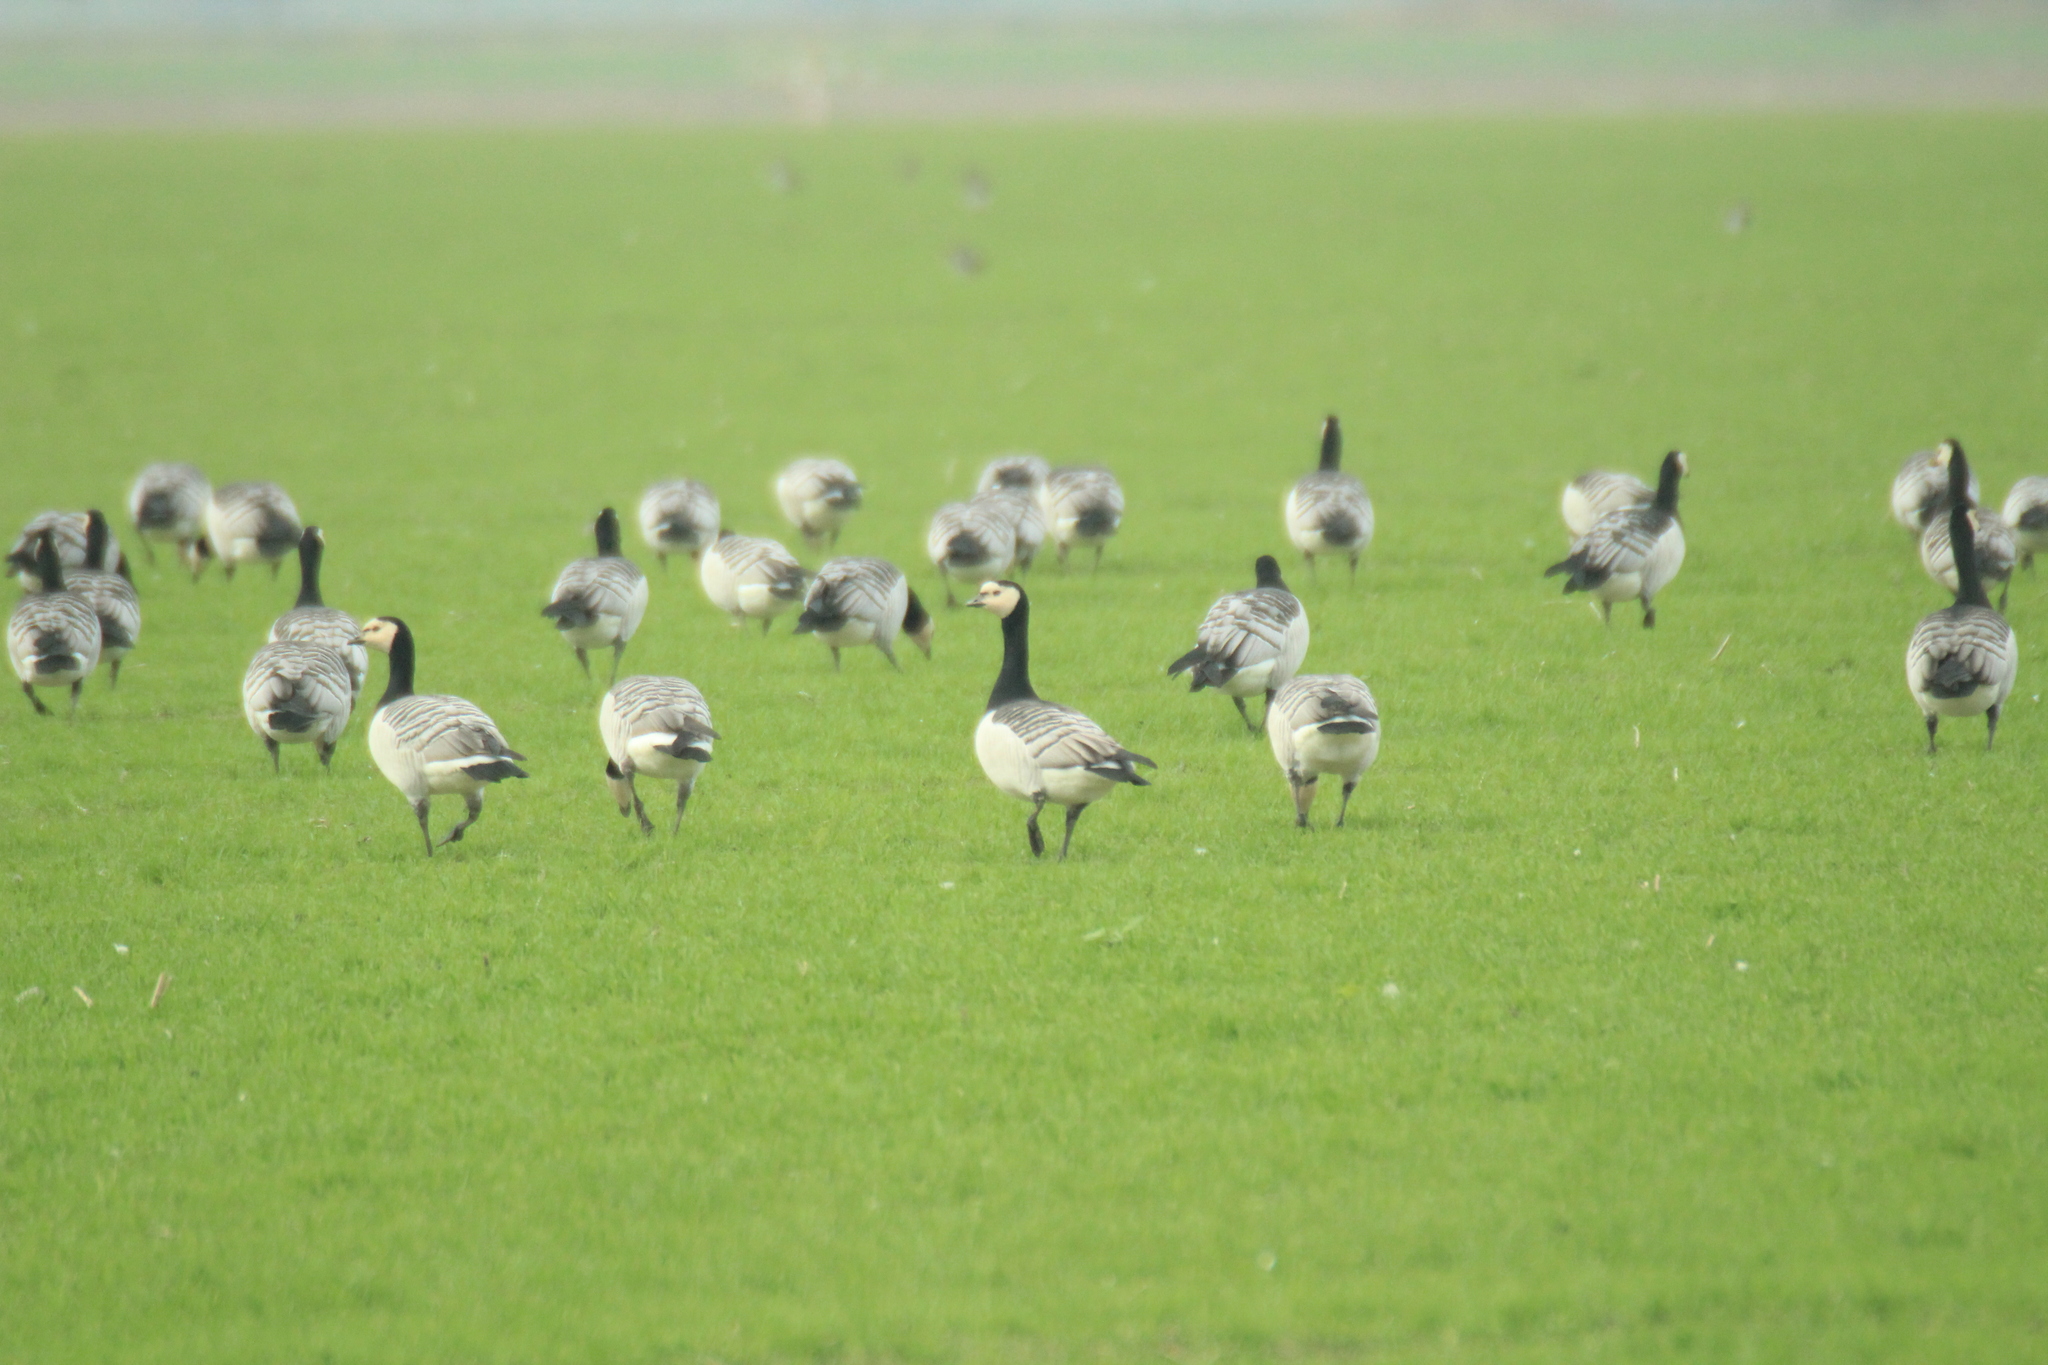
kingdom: Animalia
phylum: Chordata
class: Aves
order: Anseriformes
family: Anatidae
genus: Branta
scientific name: Branta leucopsis
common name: Barnacle goose
